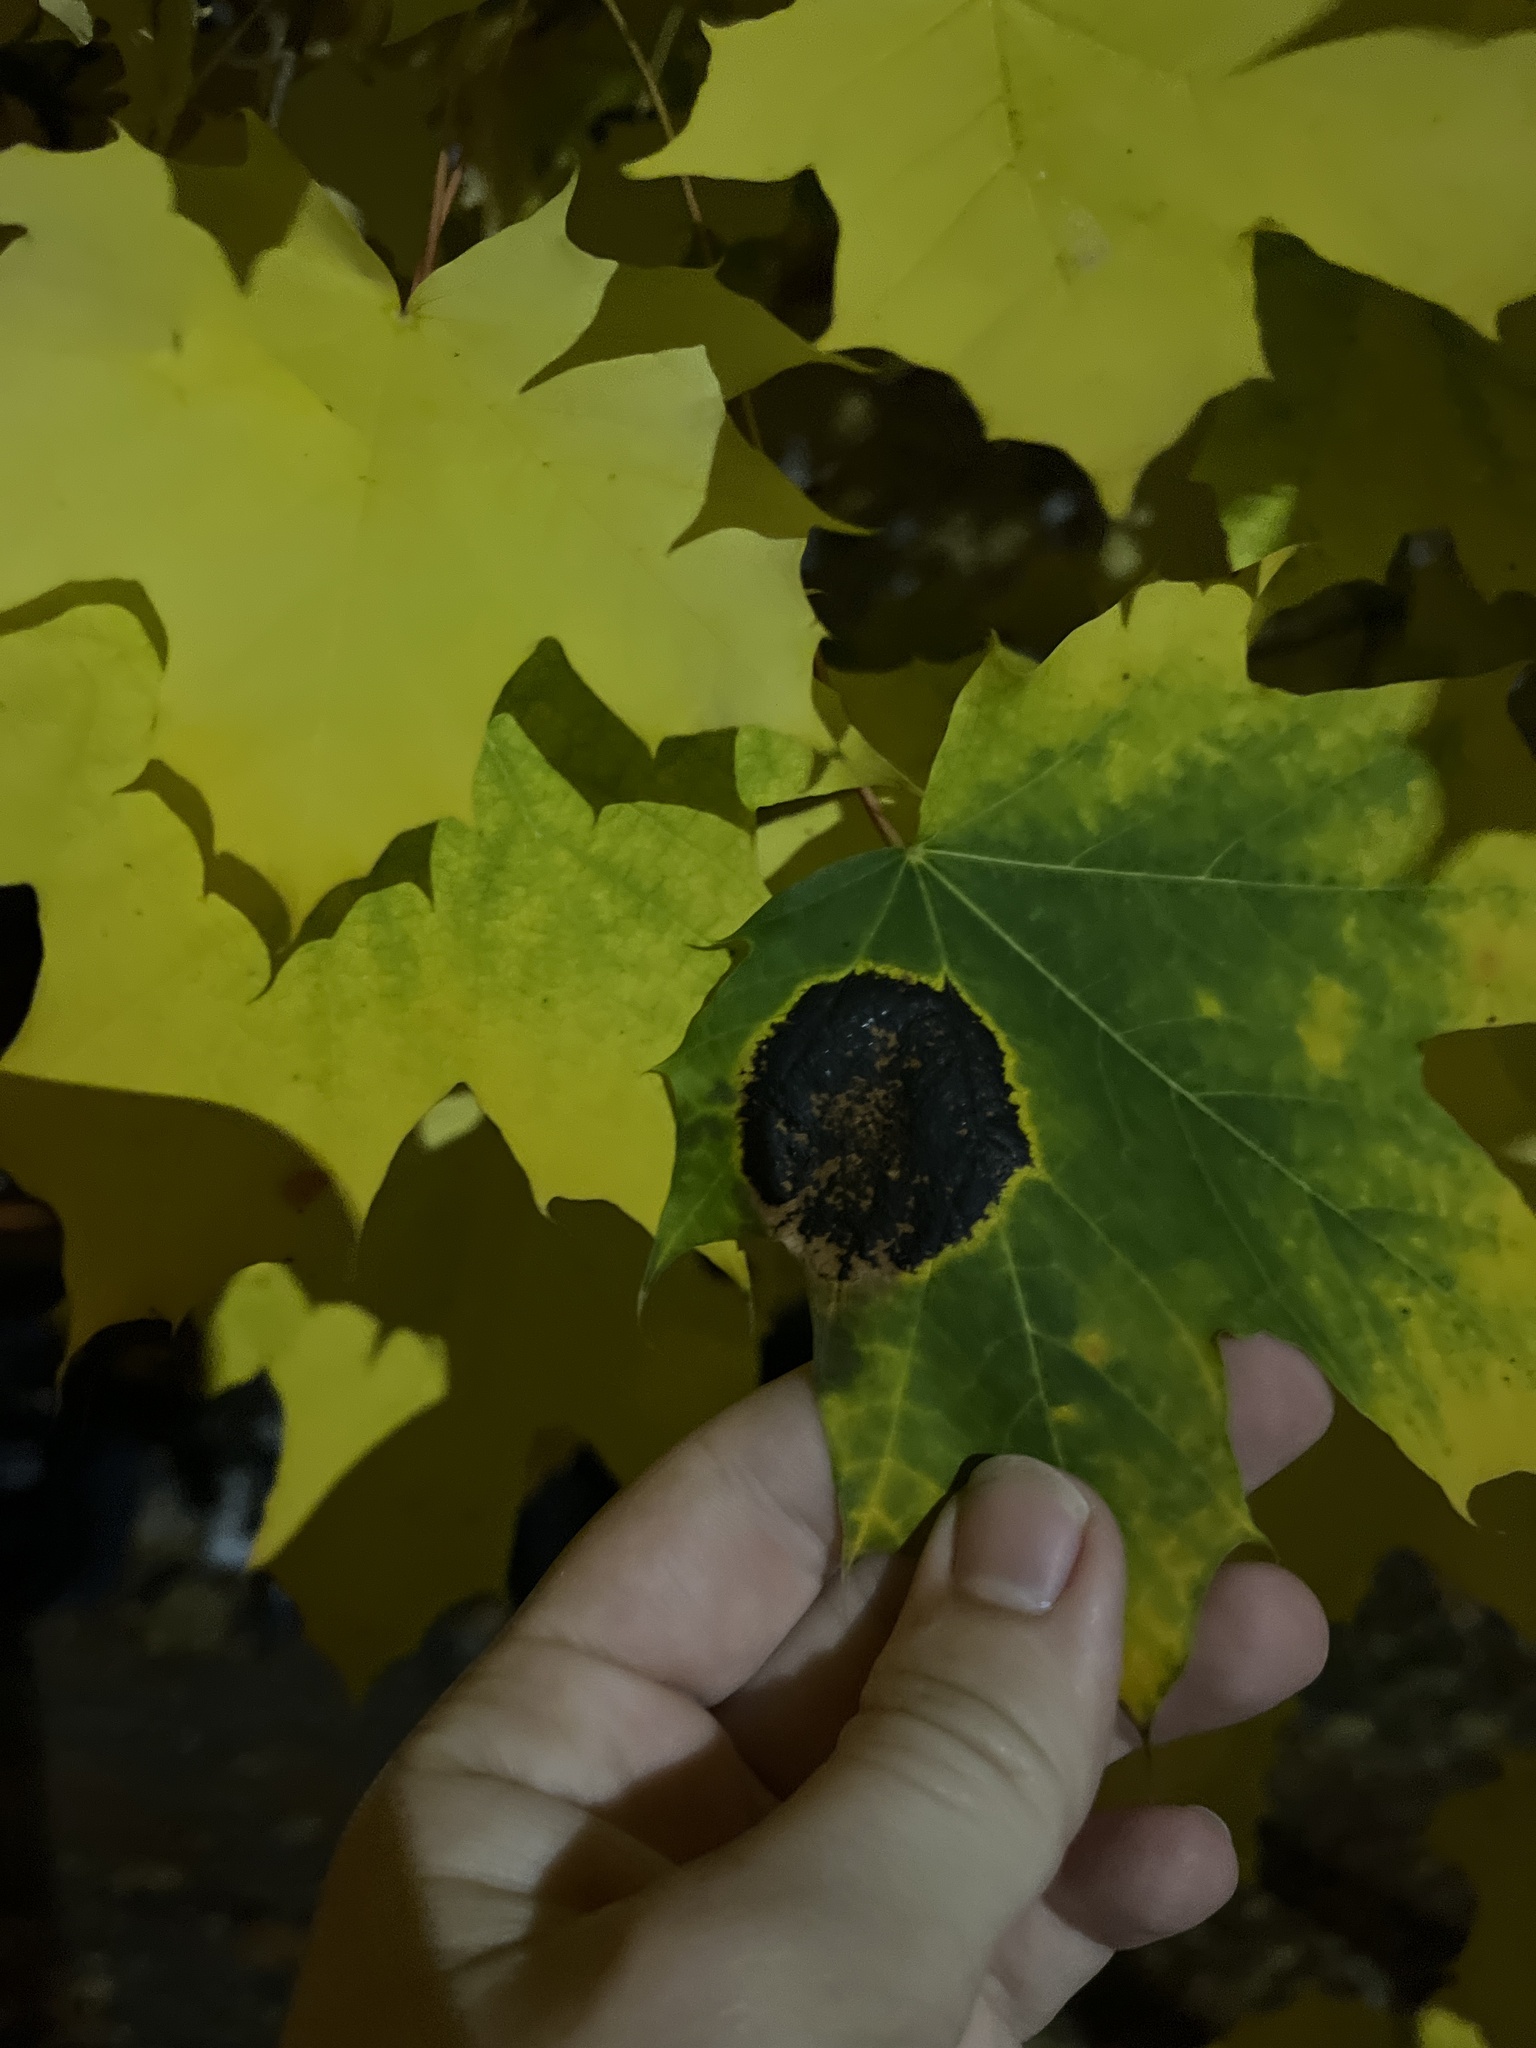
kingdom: Fungi
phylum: Ascomycota
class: Leotiomycetes
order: Rhytismatales
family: Rhytismataceae
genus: Rhytisma
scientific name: Rhytisma acerinum
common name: European tar spot
